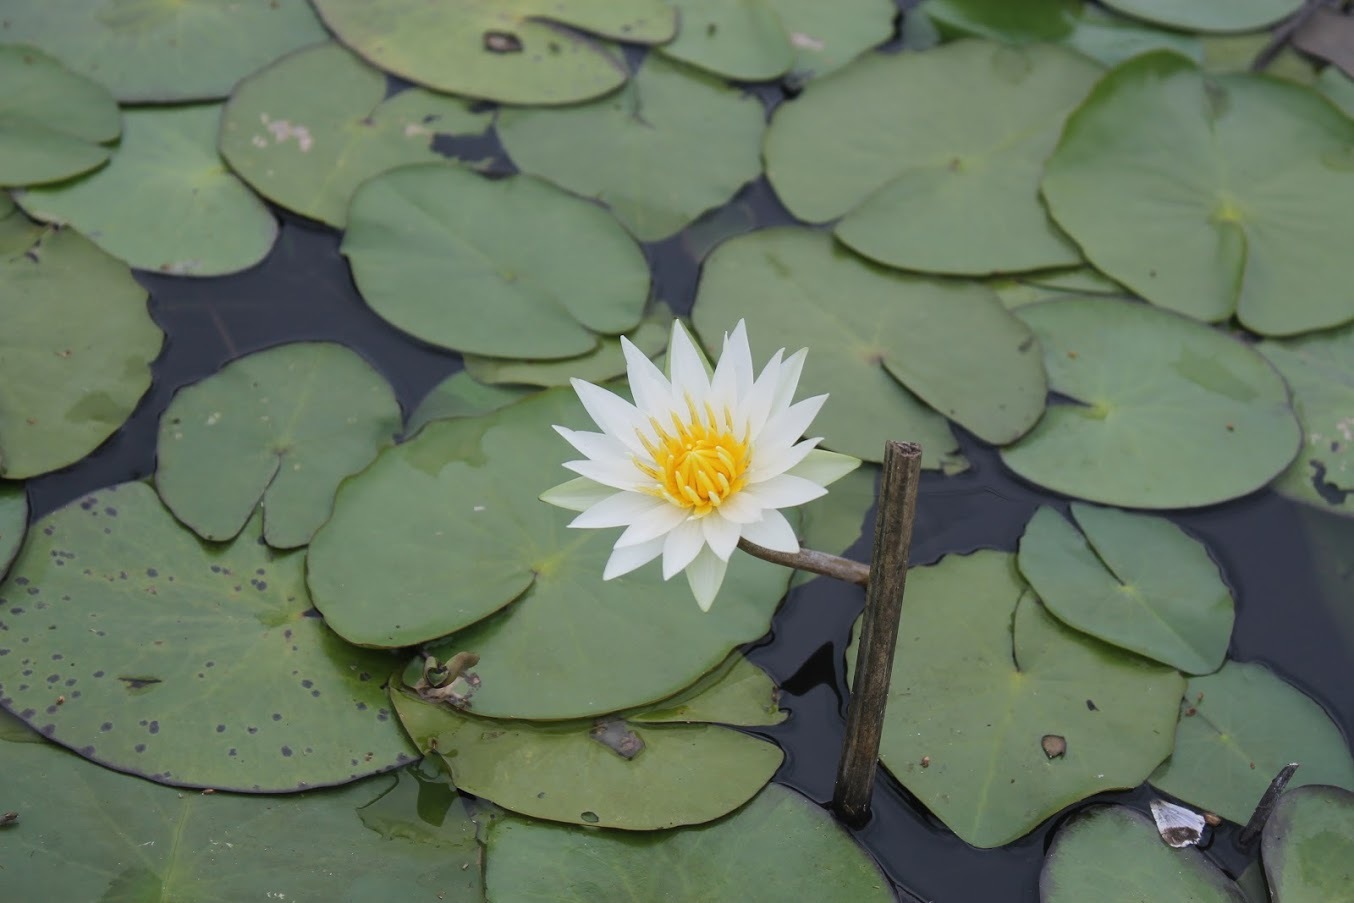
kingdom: Plantae
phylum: Tracheophyta
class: Magnoliopsida
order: Nymphaeales
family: Nymphaeaceae
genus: Nymphaea
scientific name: Nymphaea gracilis
